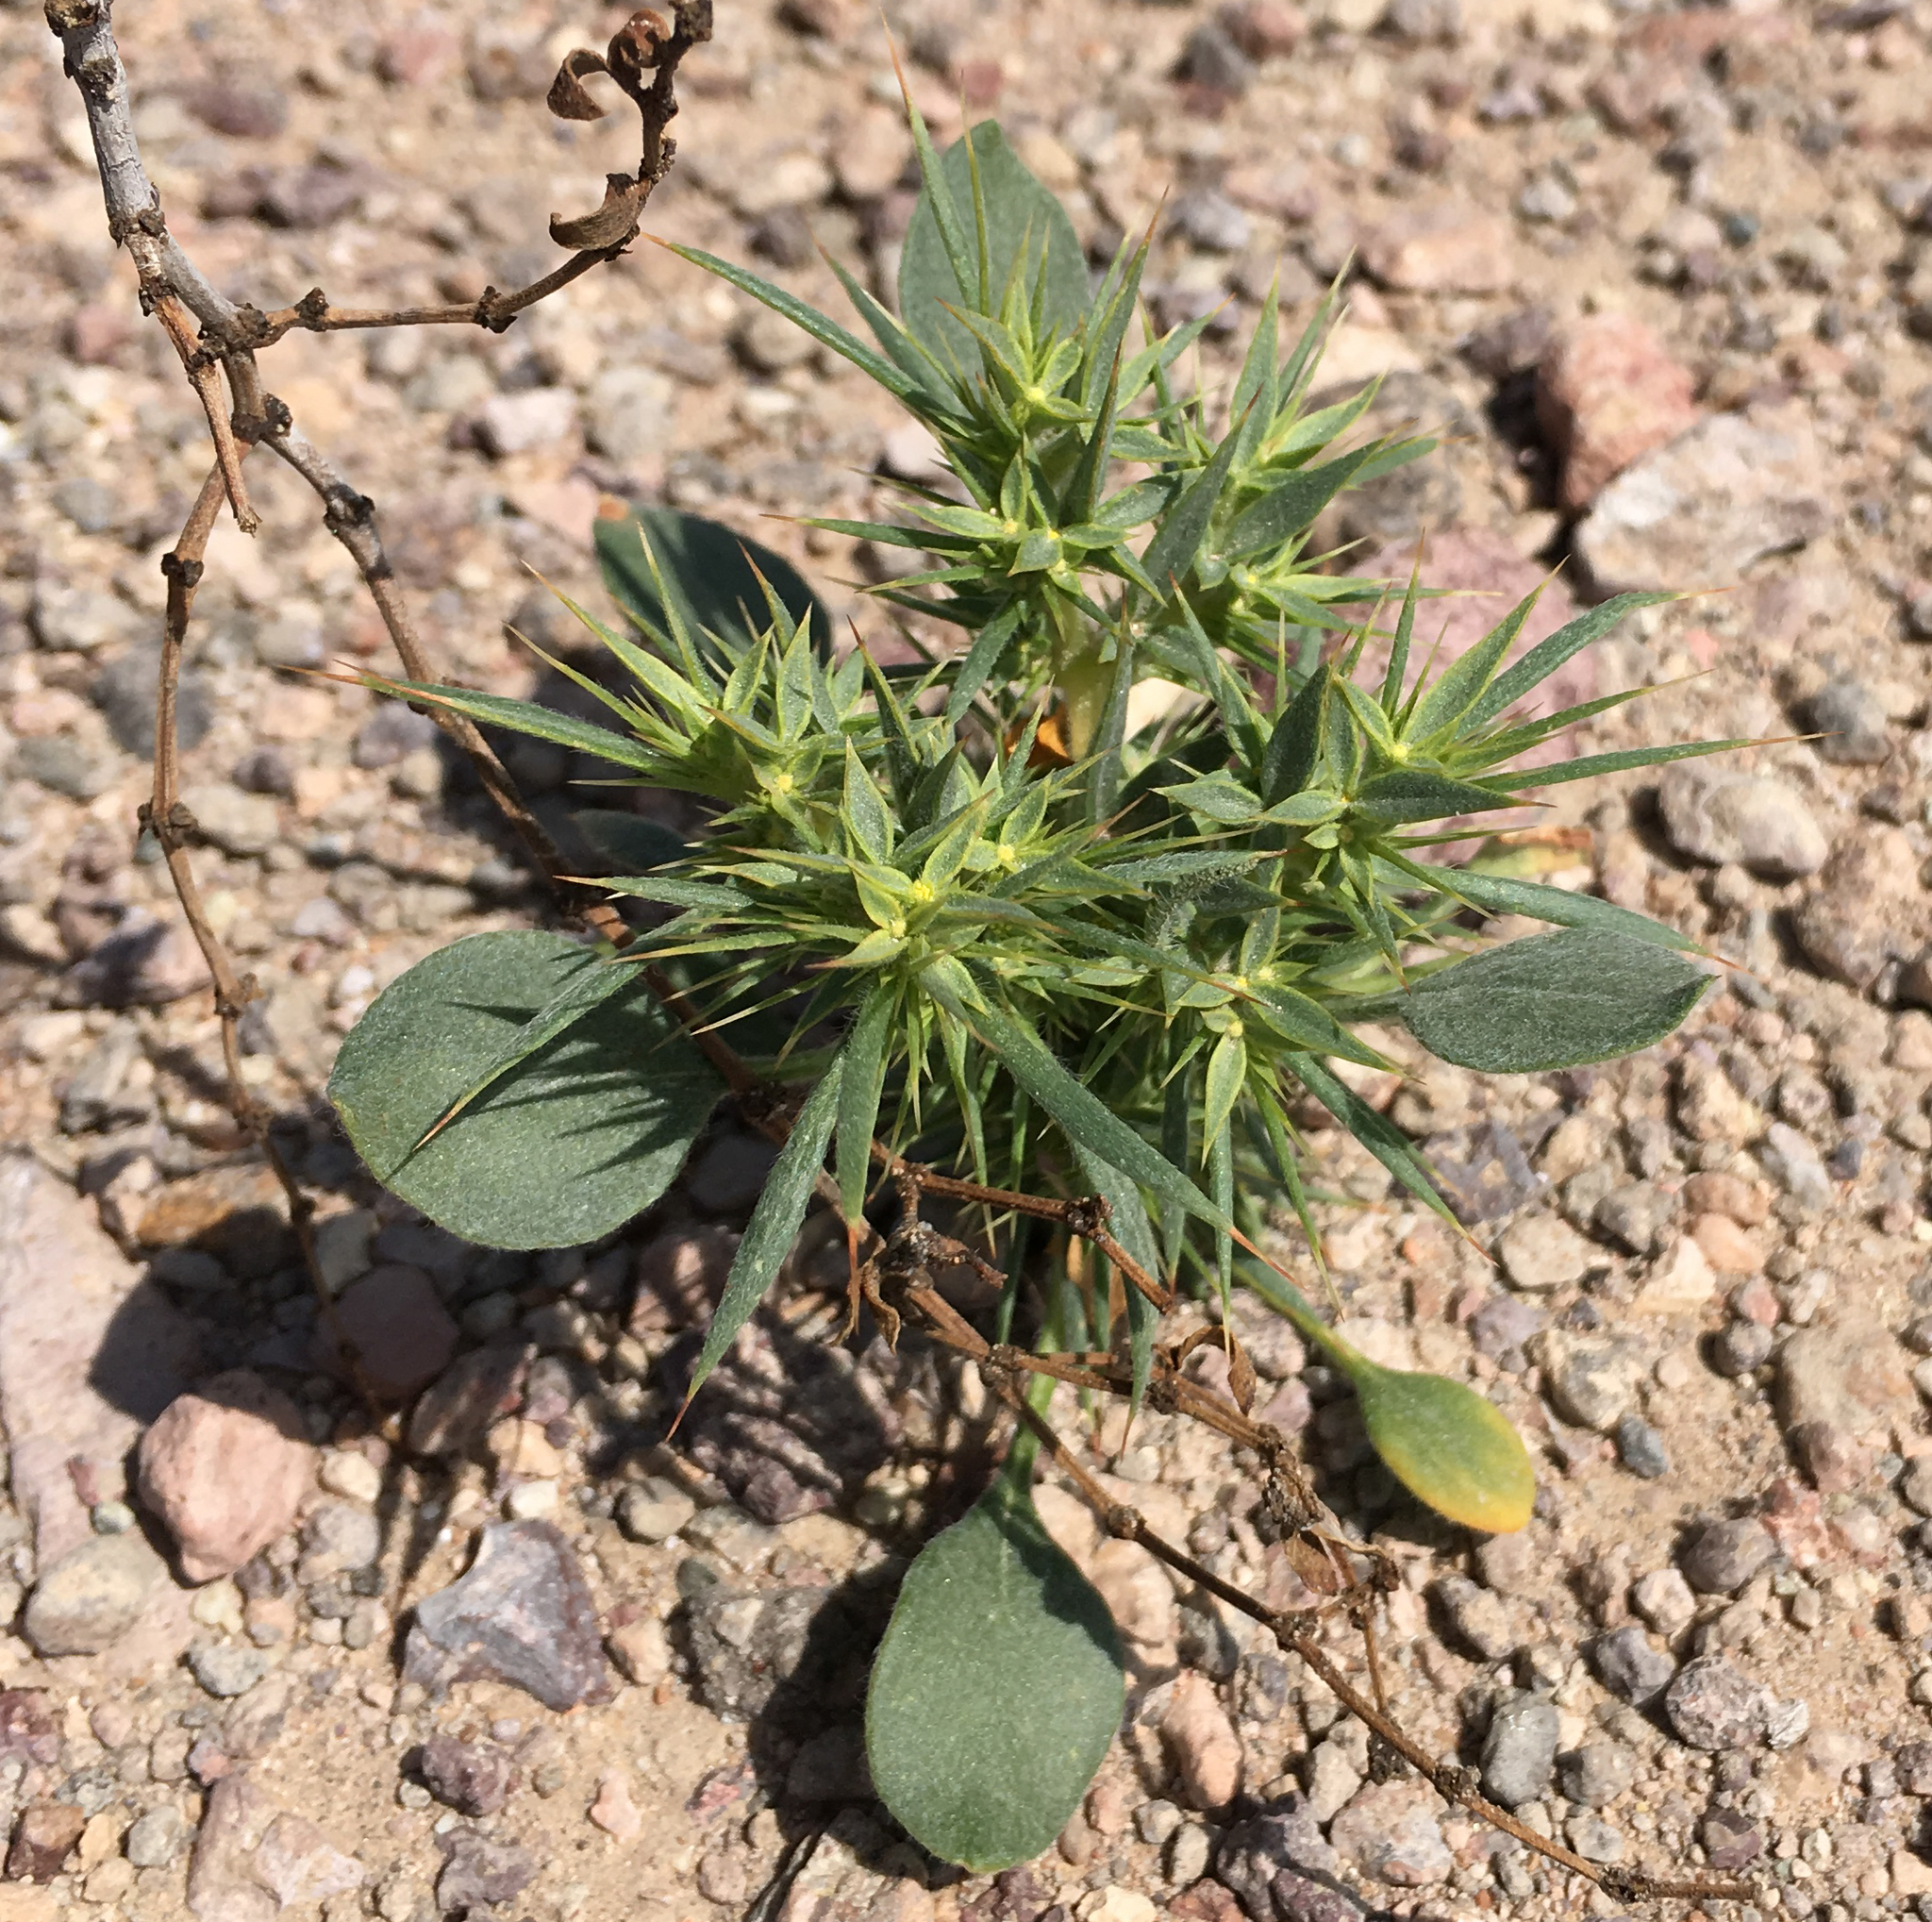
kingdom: Plantae
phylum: Tracheophyta
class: Magnoliopsida
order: Caryophyllales
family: Polygonaceae
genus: Chorizanthe
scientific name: Chorizanthe rigida
